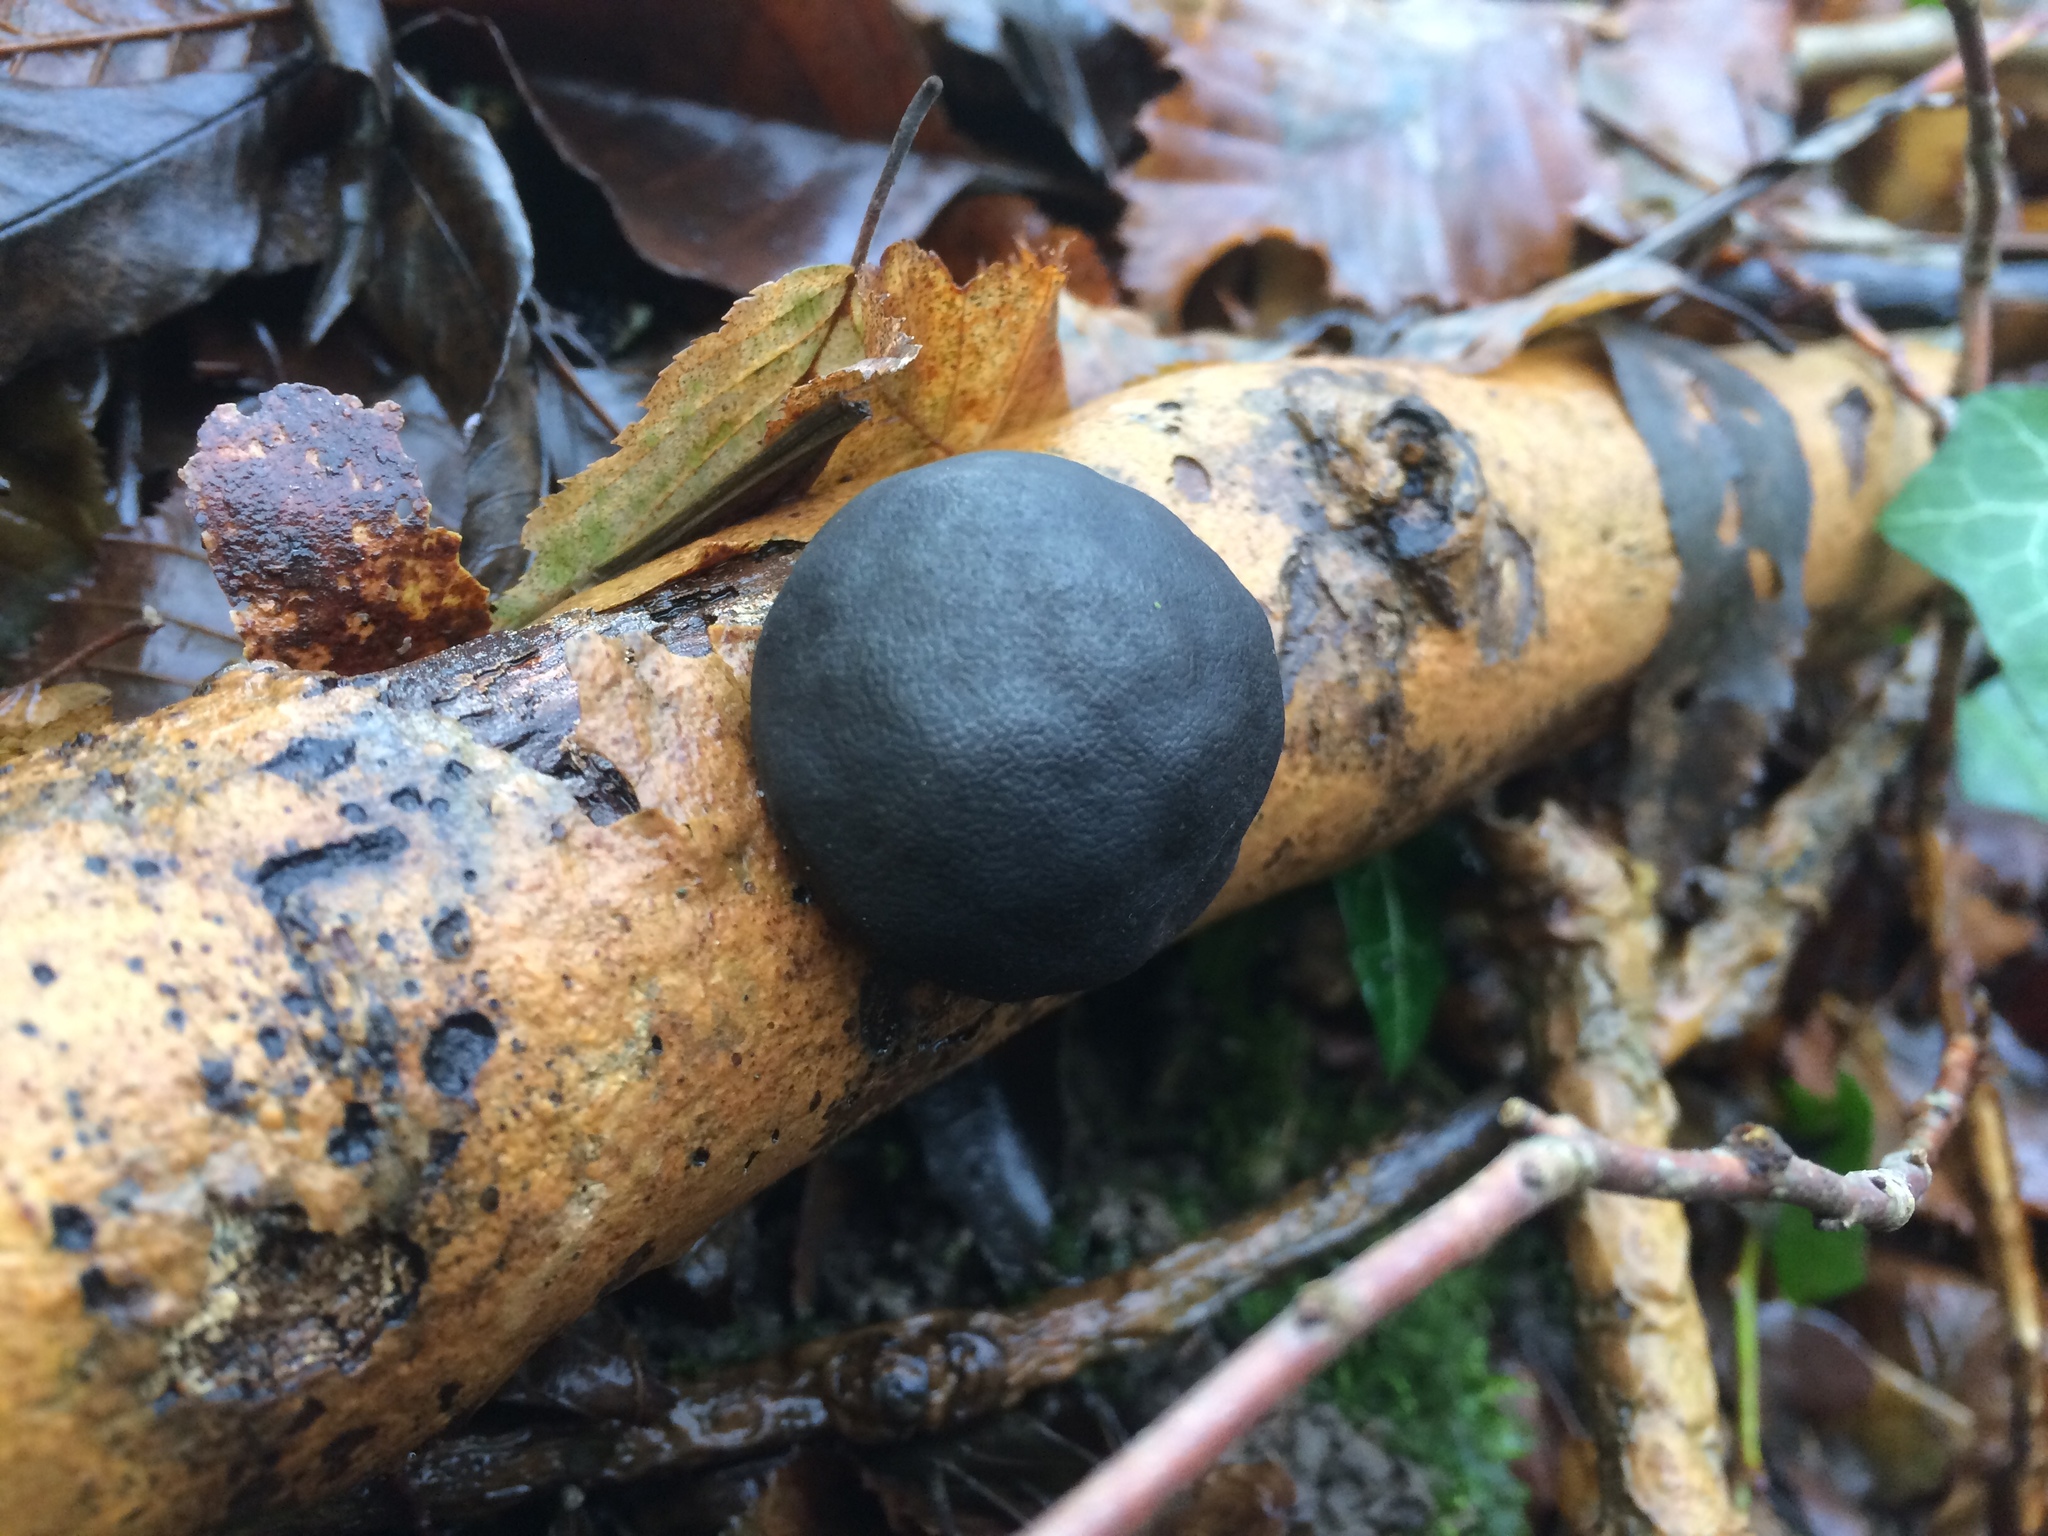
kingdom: Fungi
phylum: Ascomycota
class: Sordariomycetes
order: Xylariales
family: Hypoxylaceae
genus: Daldinia
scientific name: Daldinia concentrica
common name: Cramp balls
